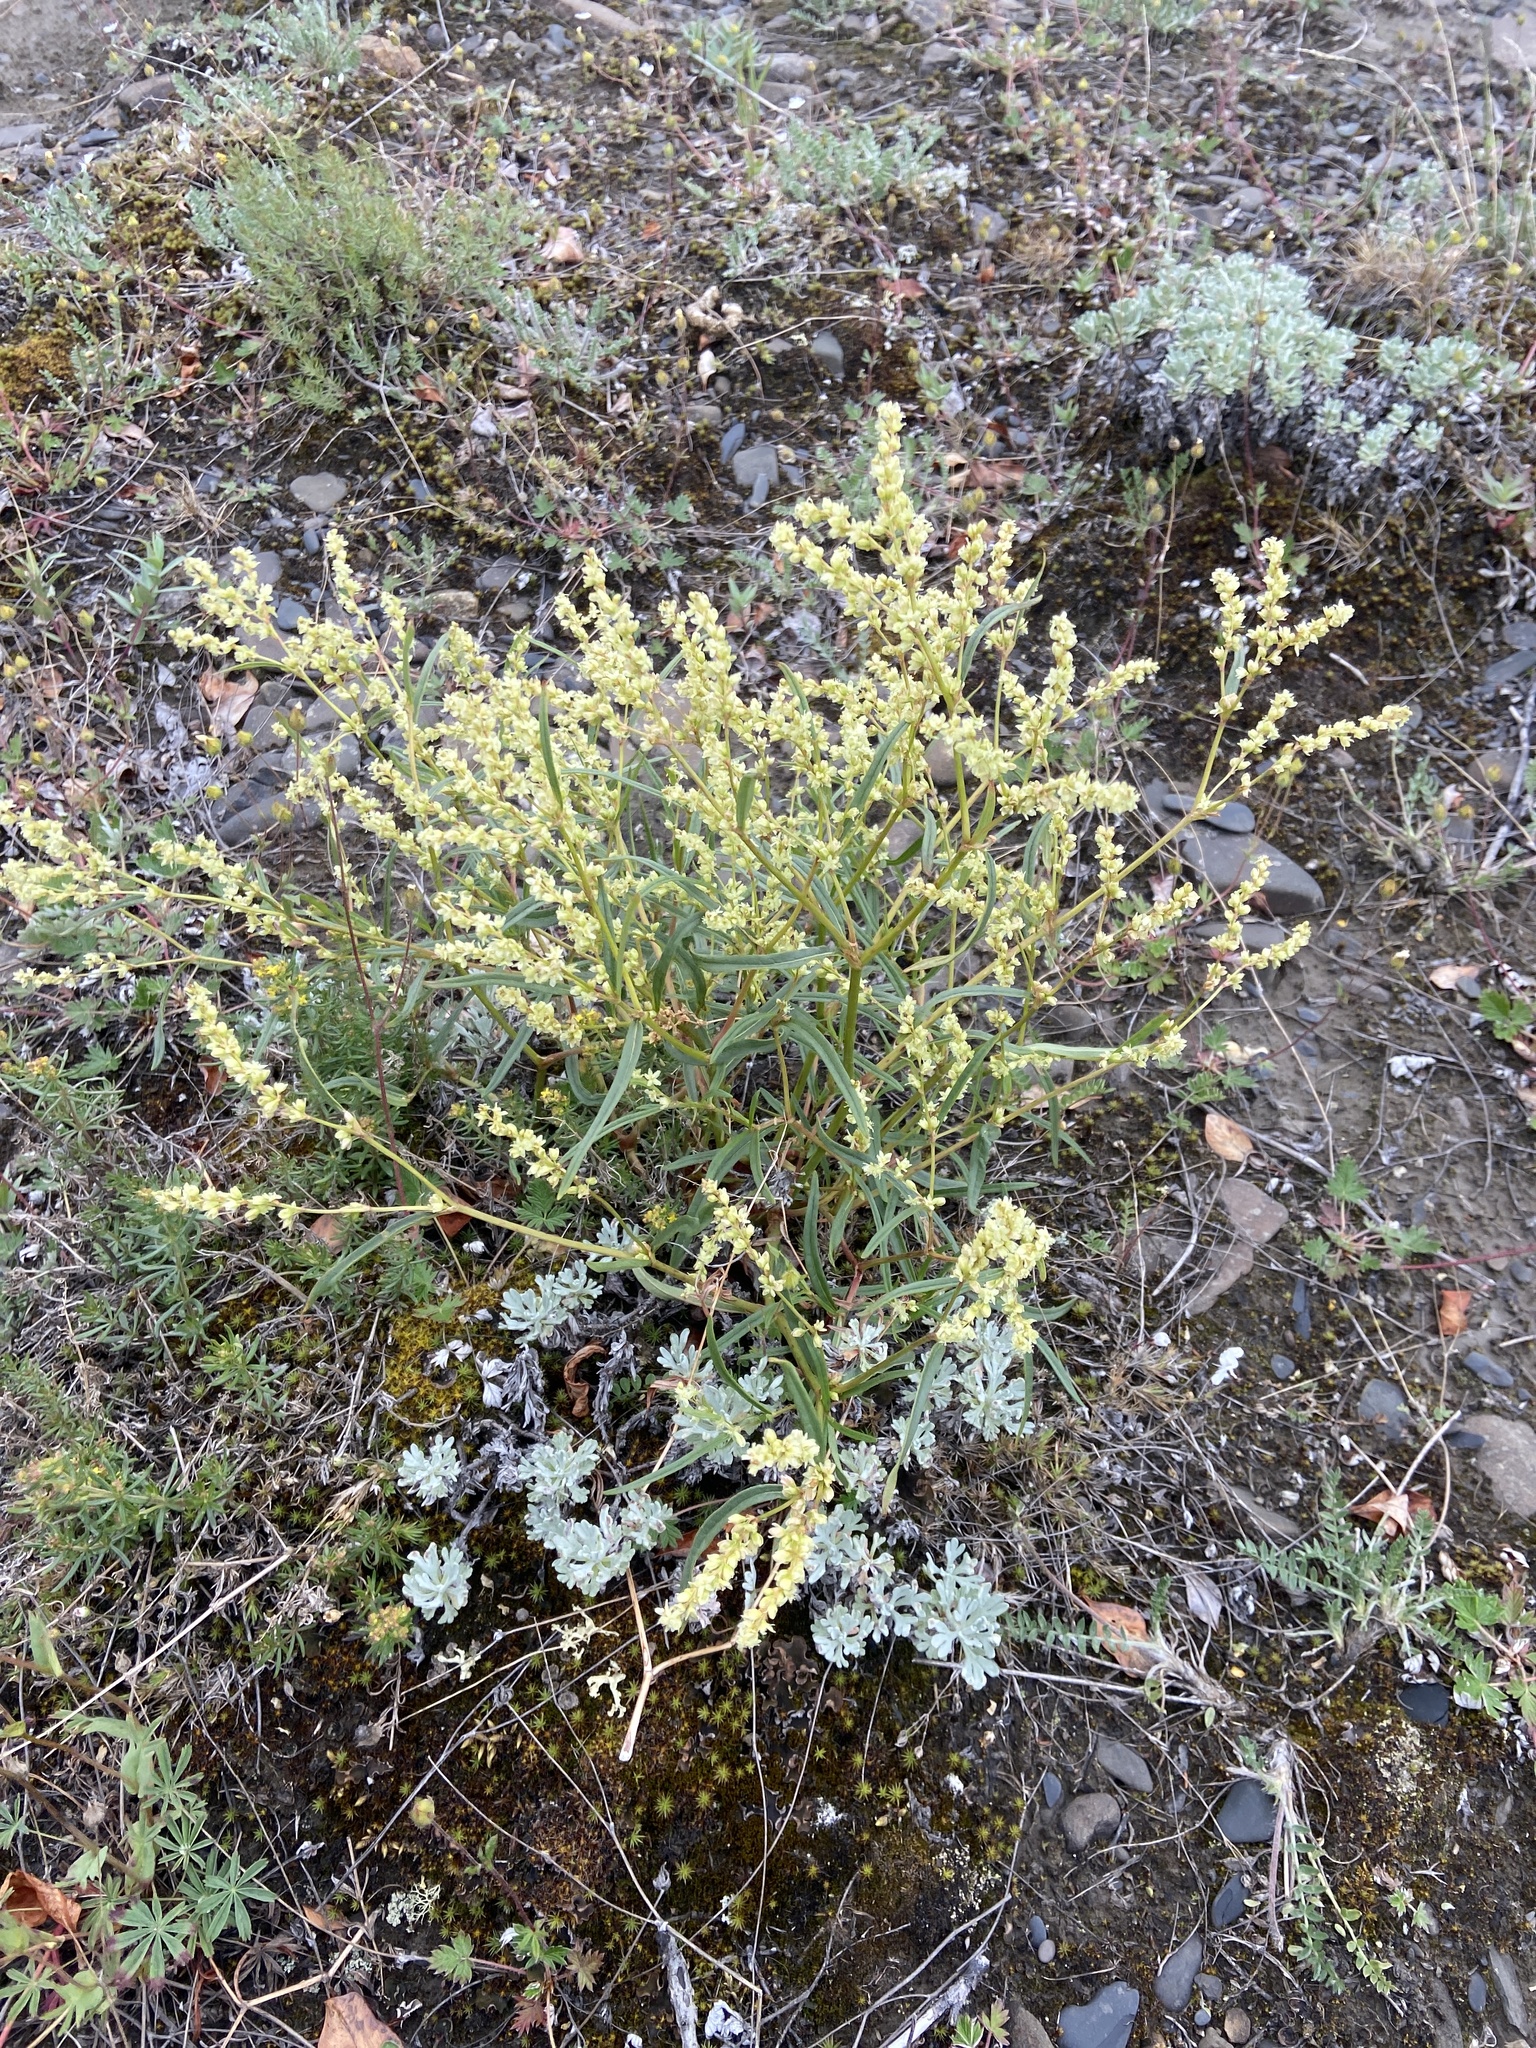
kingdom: Plantae
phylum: Tracheophyta
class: Magnoliopsida
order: Caryophyllales
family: Polygonaceae
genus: Koenigia
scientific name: Koenigia ocreata
